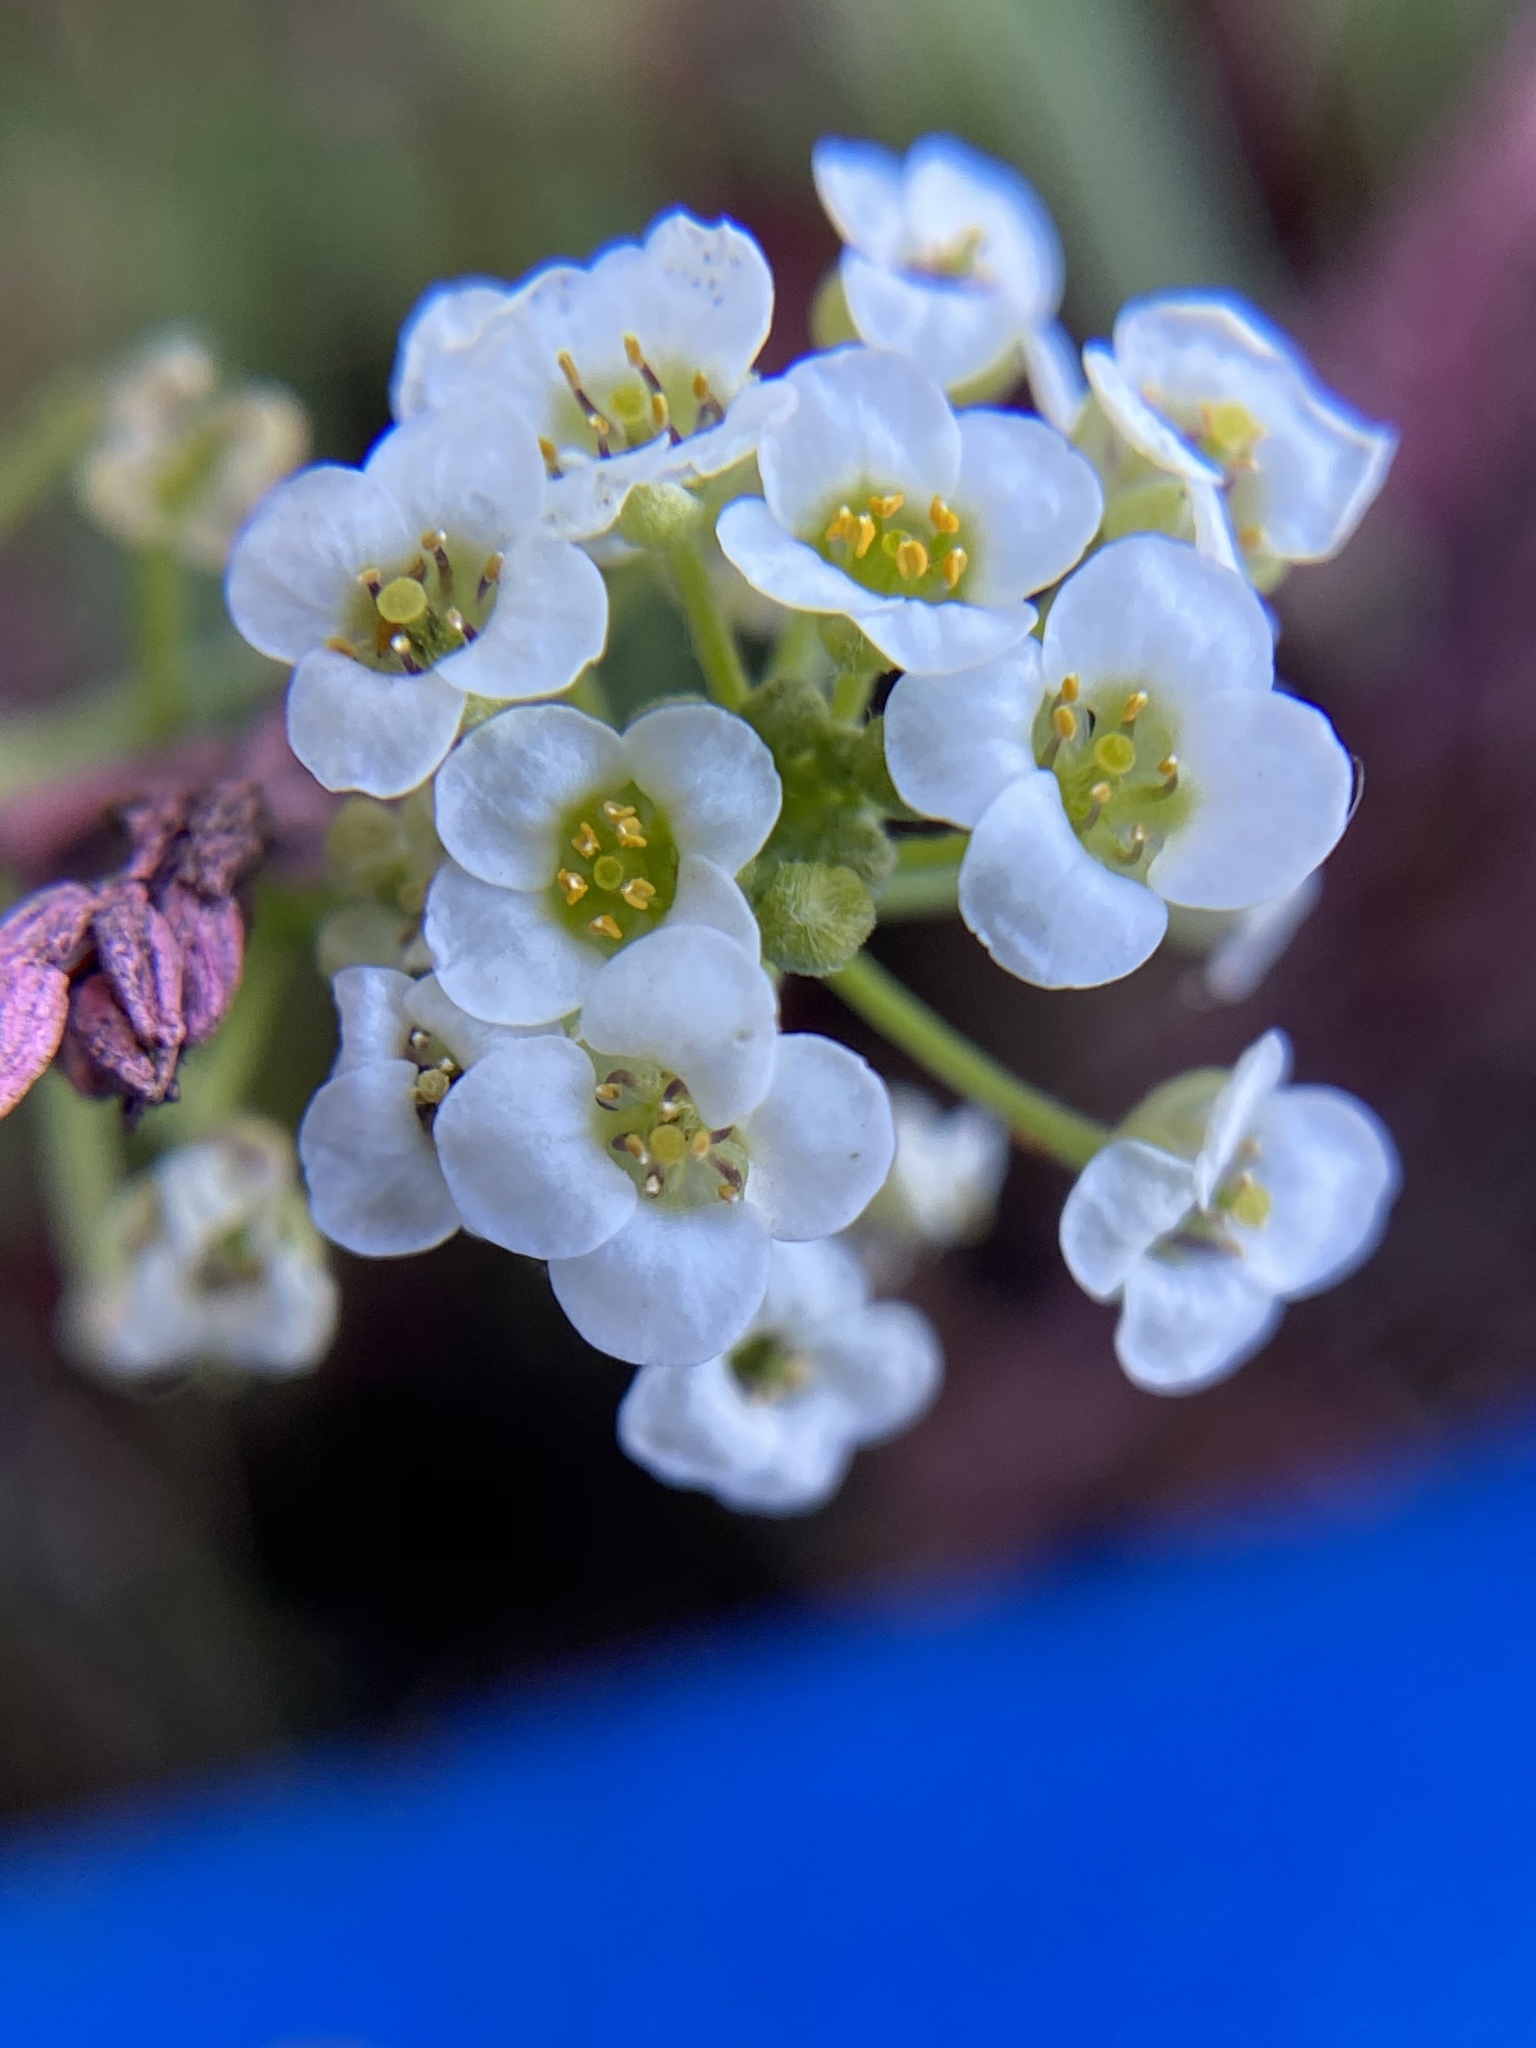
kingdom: Plantae
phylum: Tracheophyta
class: Magnoliopsida
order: Brassicales
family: Brassicaceae
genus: Lobularia
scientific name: Lobularia maritima
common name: Sweet alison
